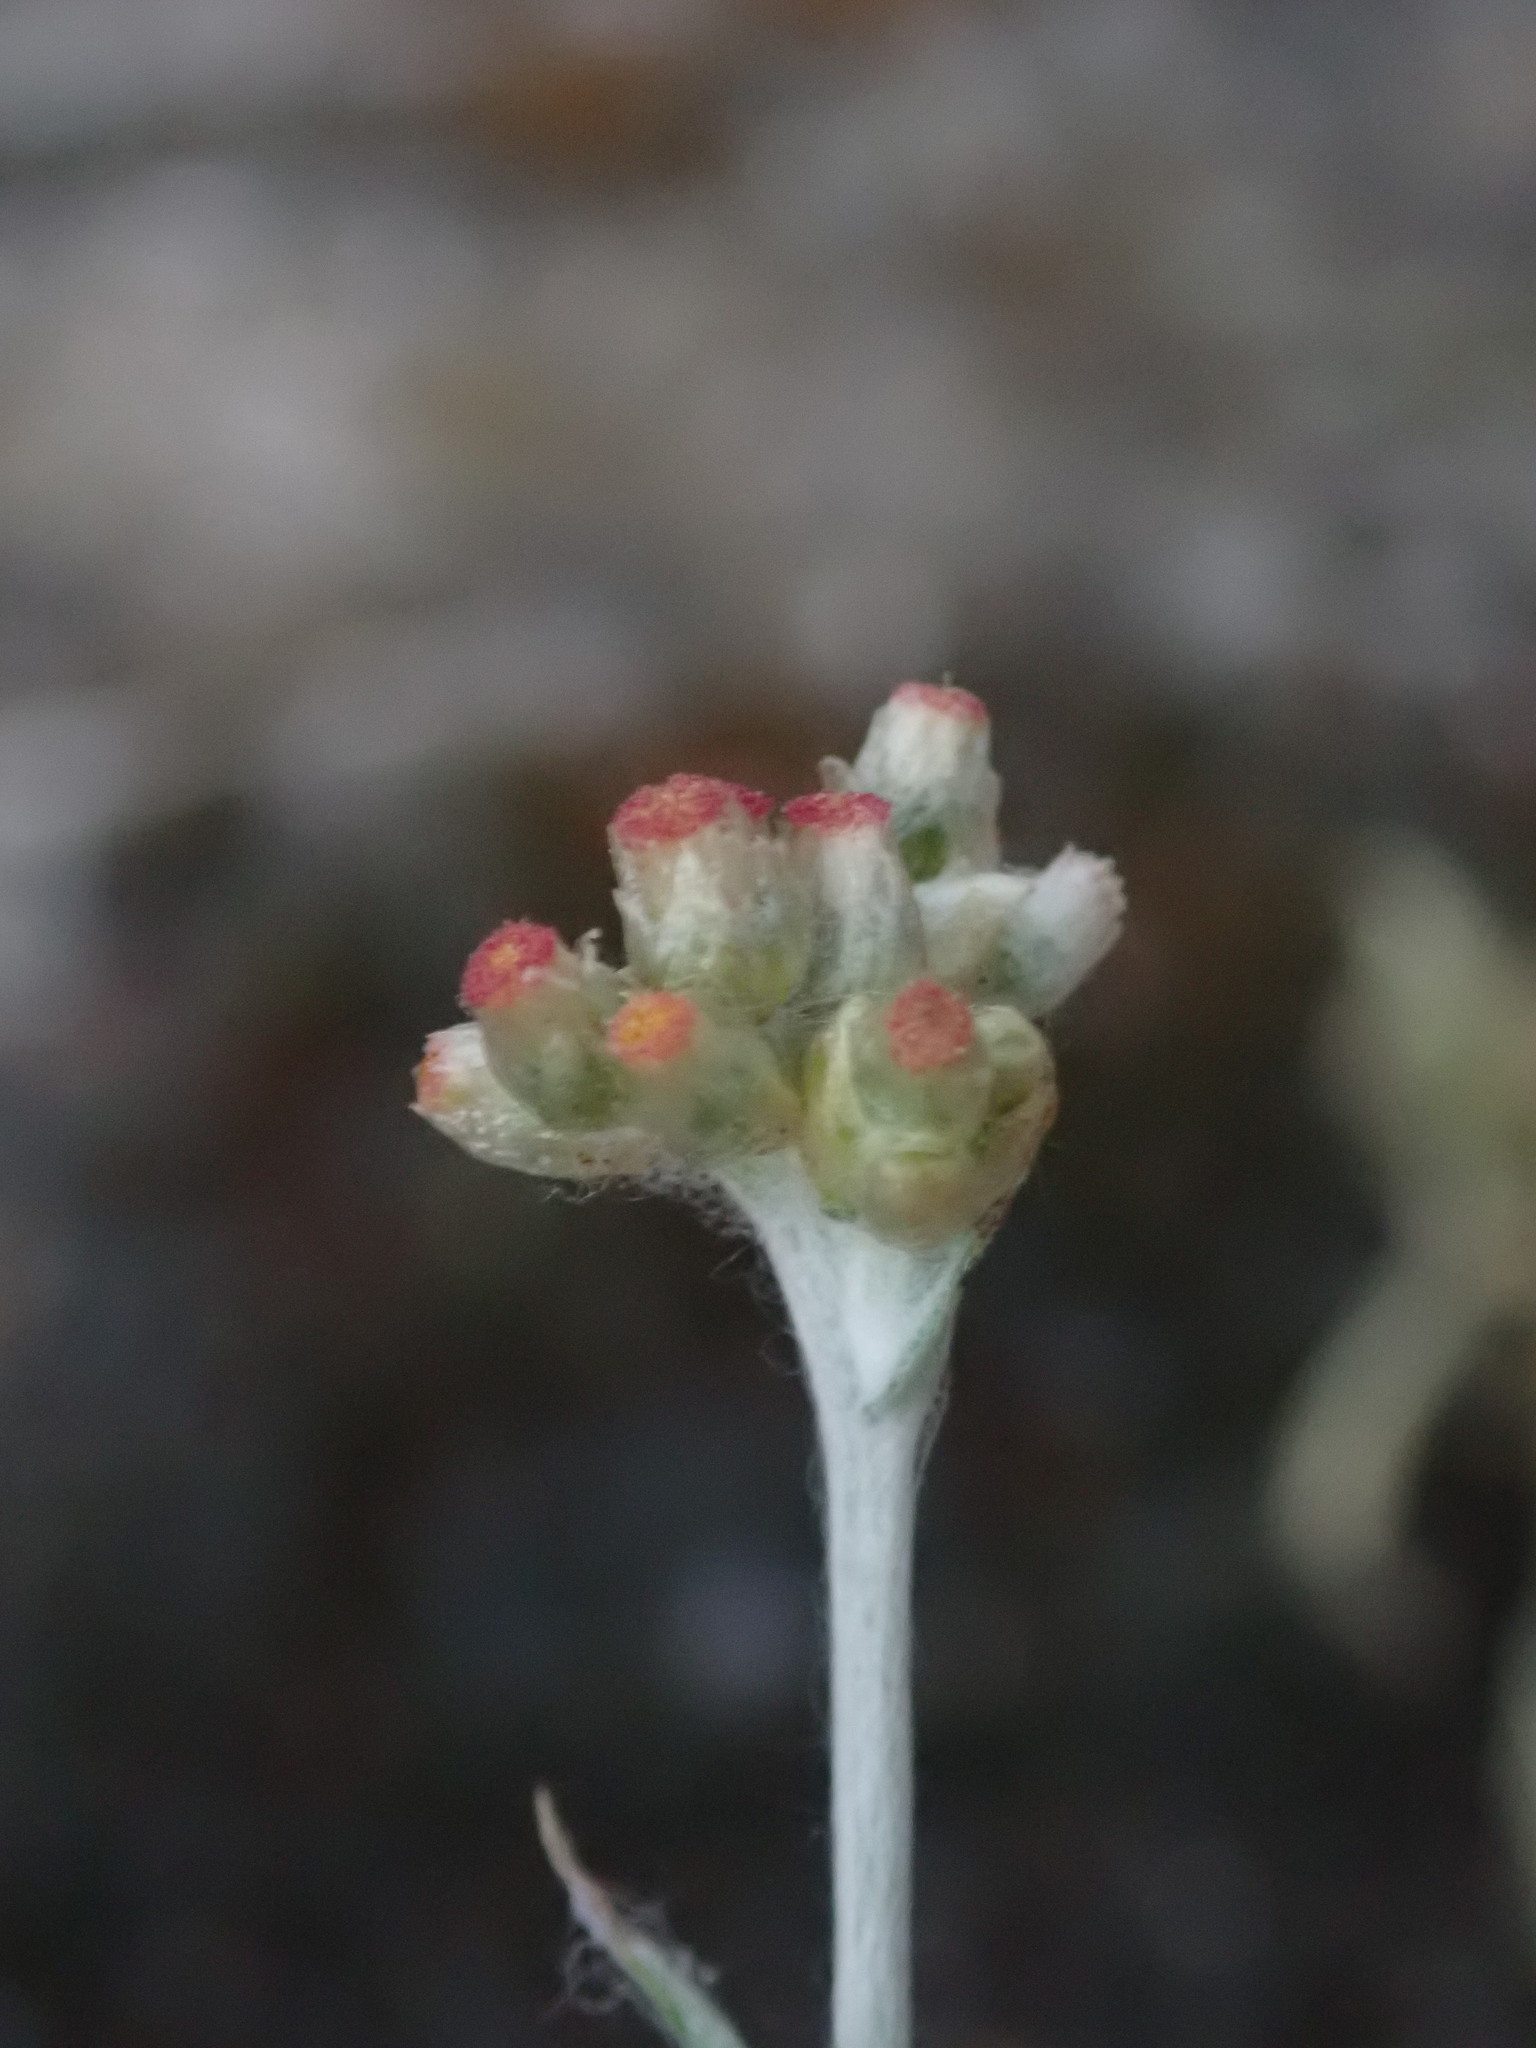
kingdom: Plantae
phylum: Tracheophyta
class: Magnoliopsida
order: Asterales
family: Asteraceae
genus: Helichrysum
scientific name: Helichrysum luteoalbum
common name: Daisy
